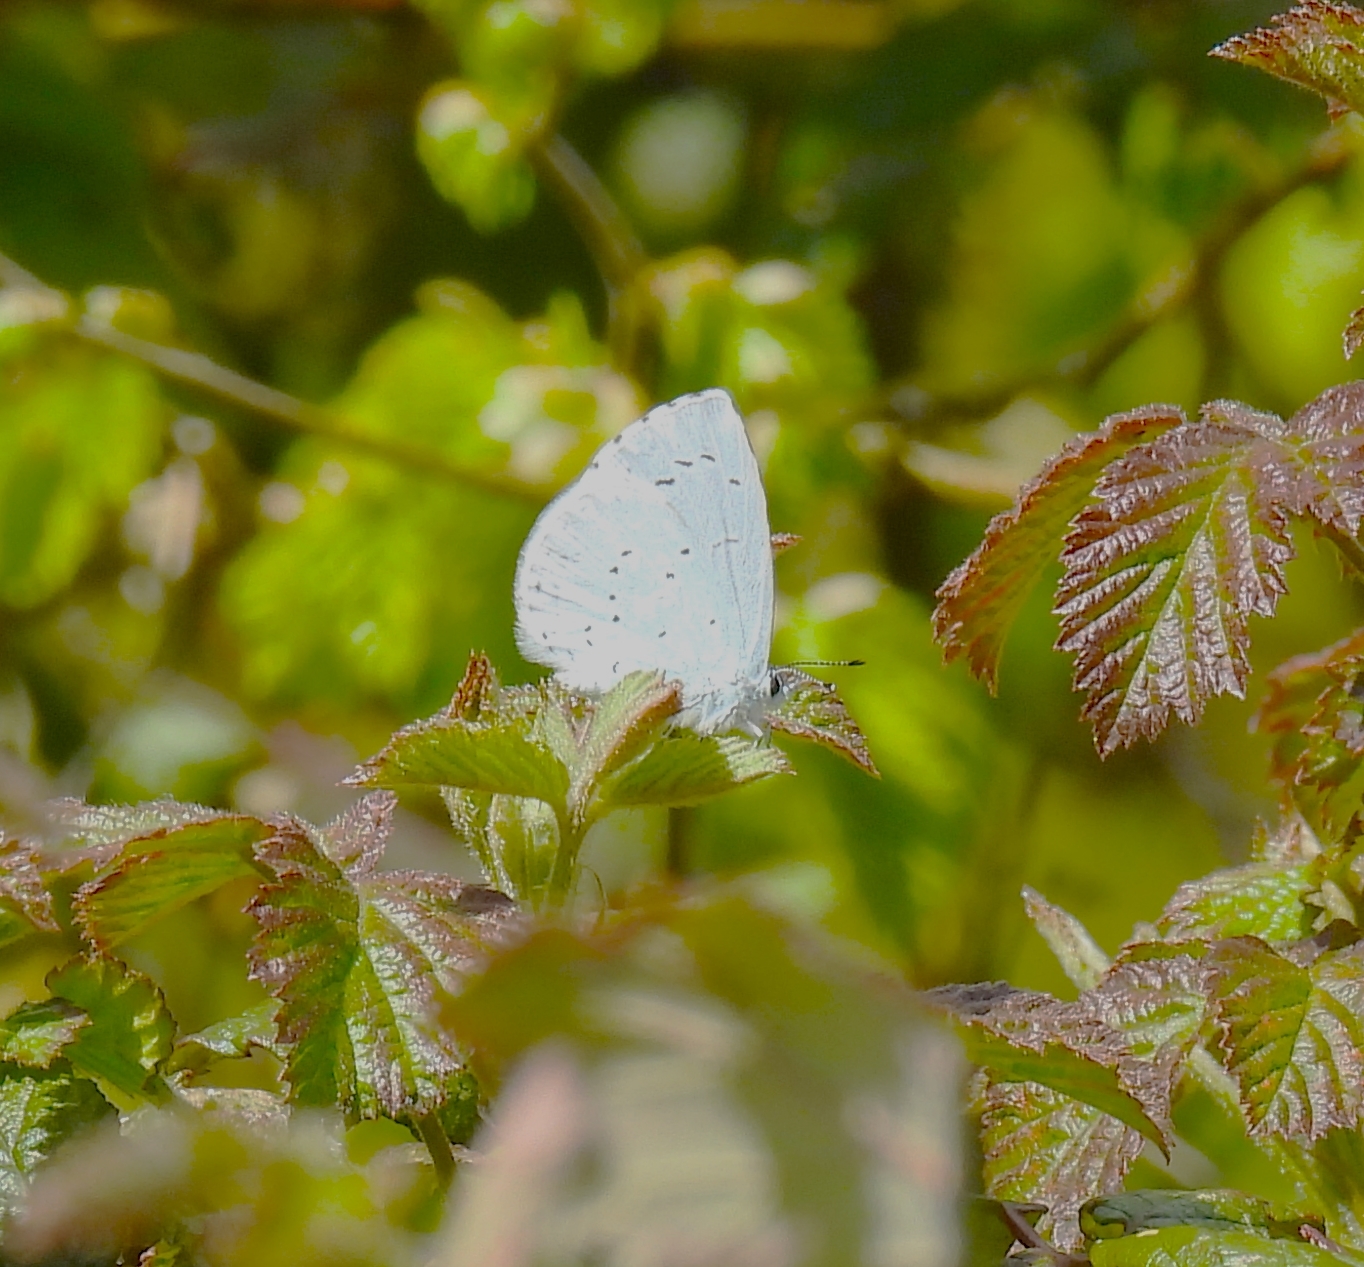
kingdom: Animalia
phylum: Arthropoda
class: Insecta
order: Lepidoptera
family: Lycaenidae
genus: Celastrina
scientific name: Celastrina argiolus
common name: Holly blue
